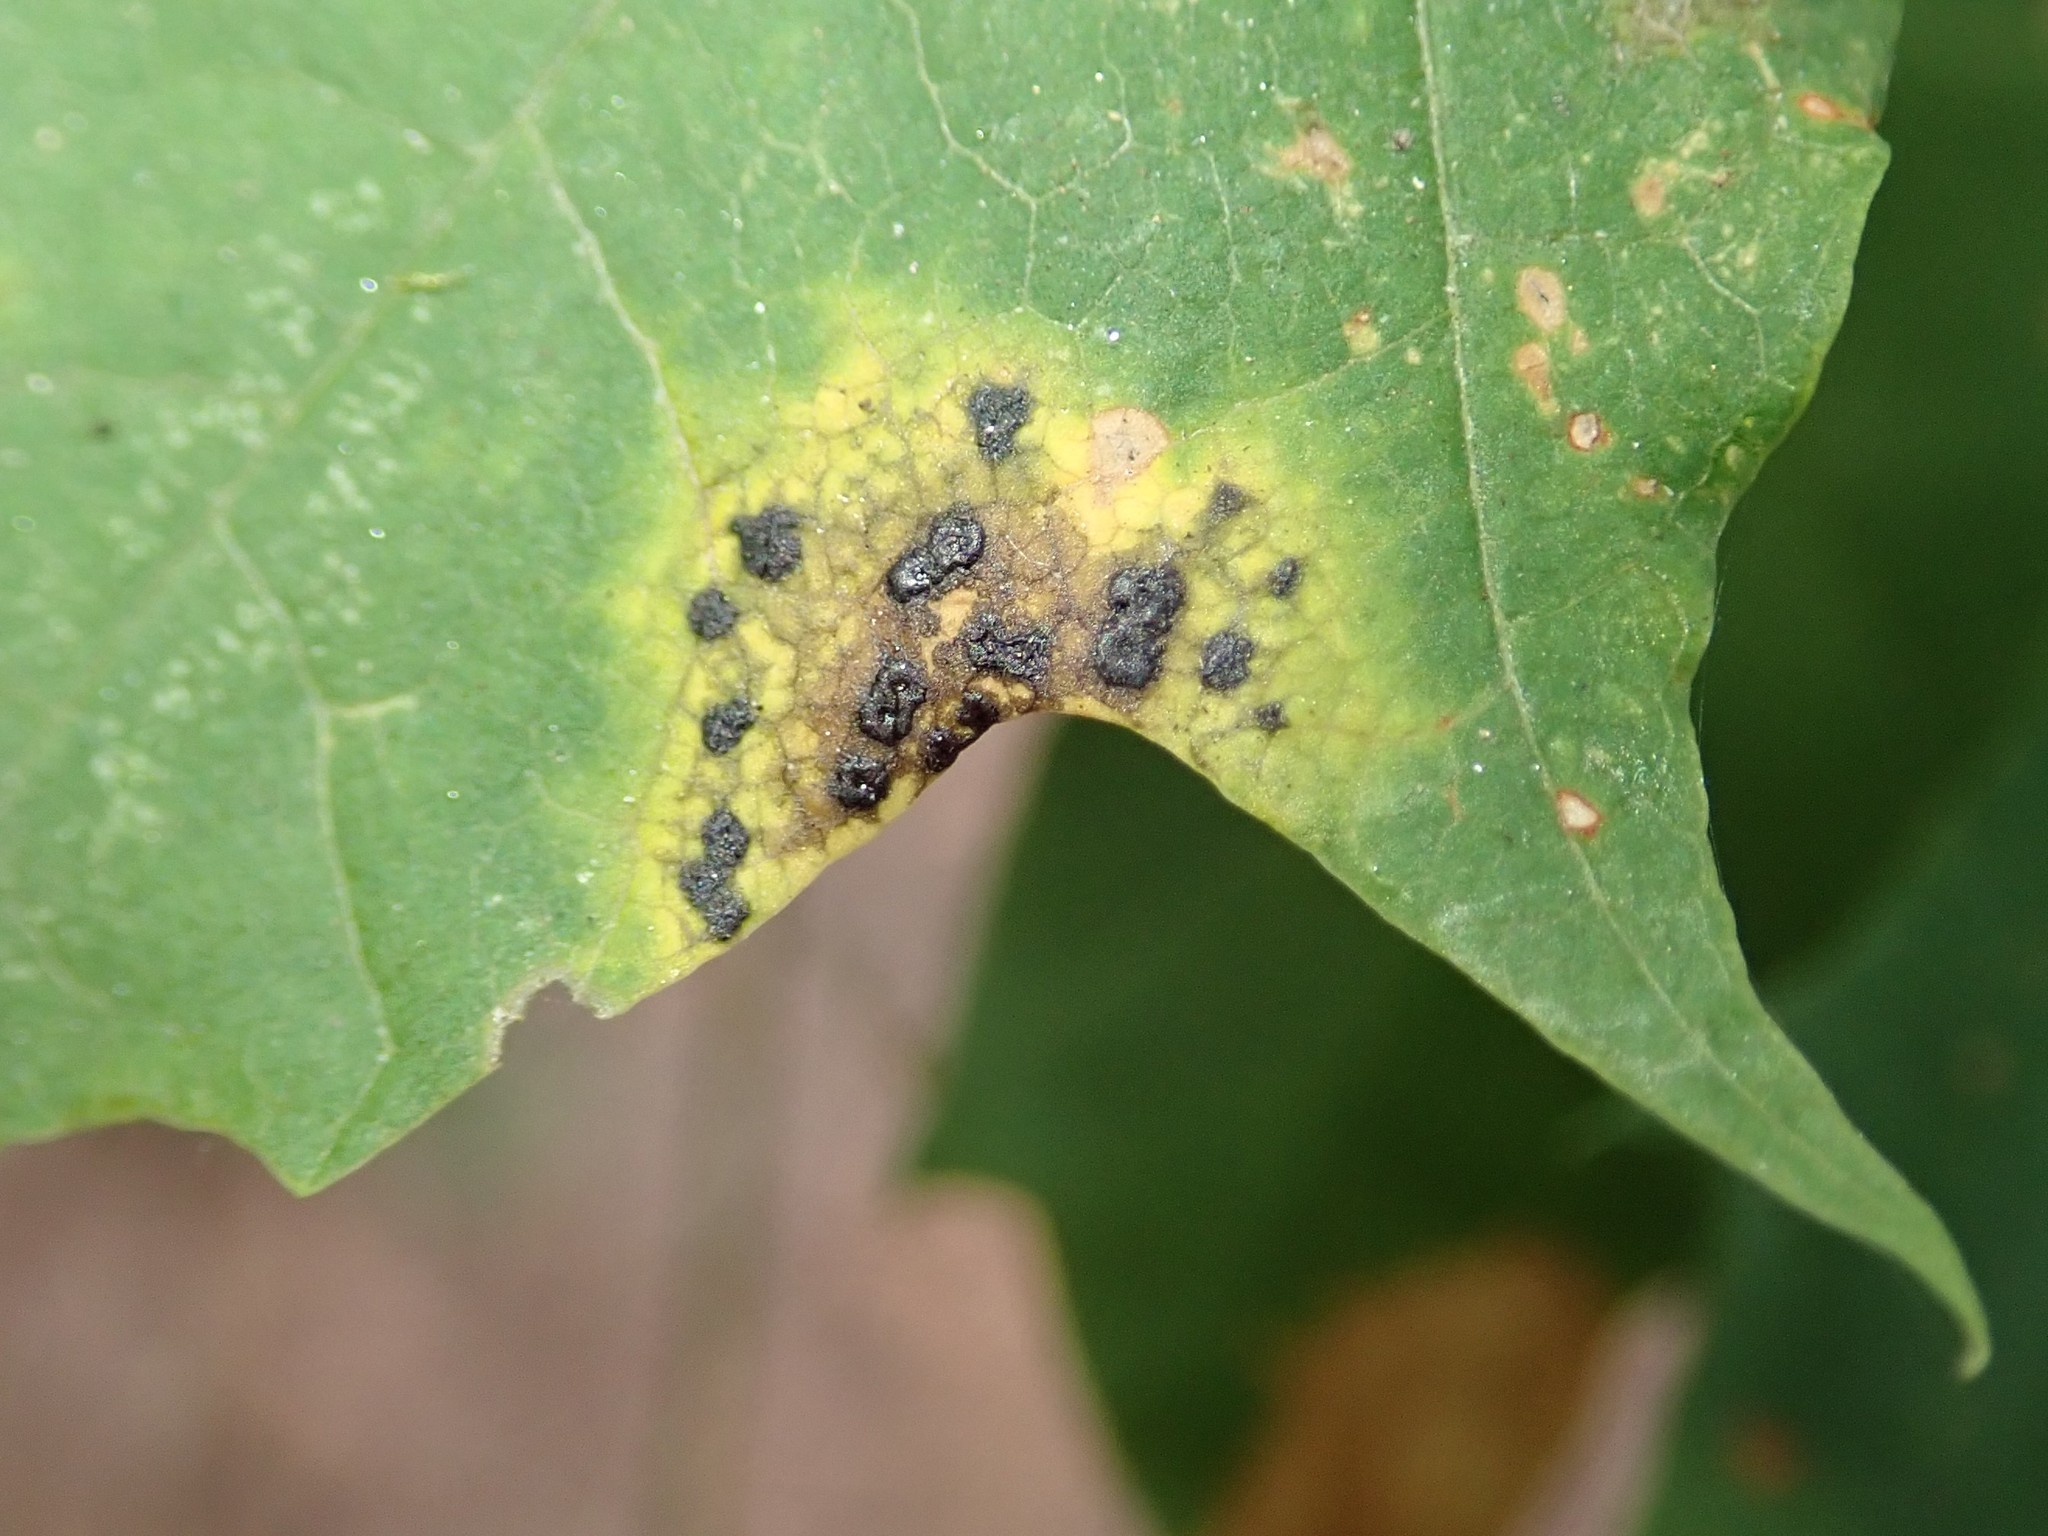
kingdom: Fungi
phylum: Ascomycota
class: Leotiomycetes
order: Rhytismatales
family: Rhytismataceae
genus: Rhytisma
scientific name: Rhytisma acerinum
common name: European tar spot
